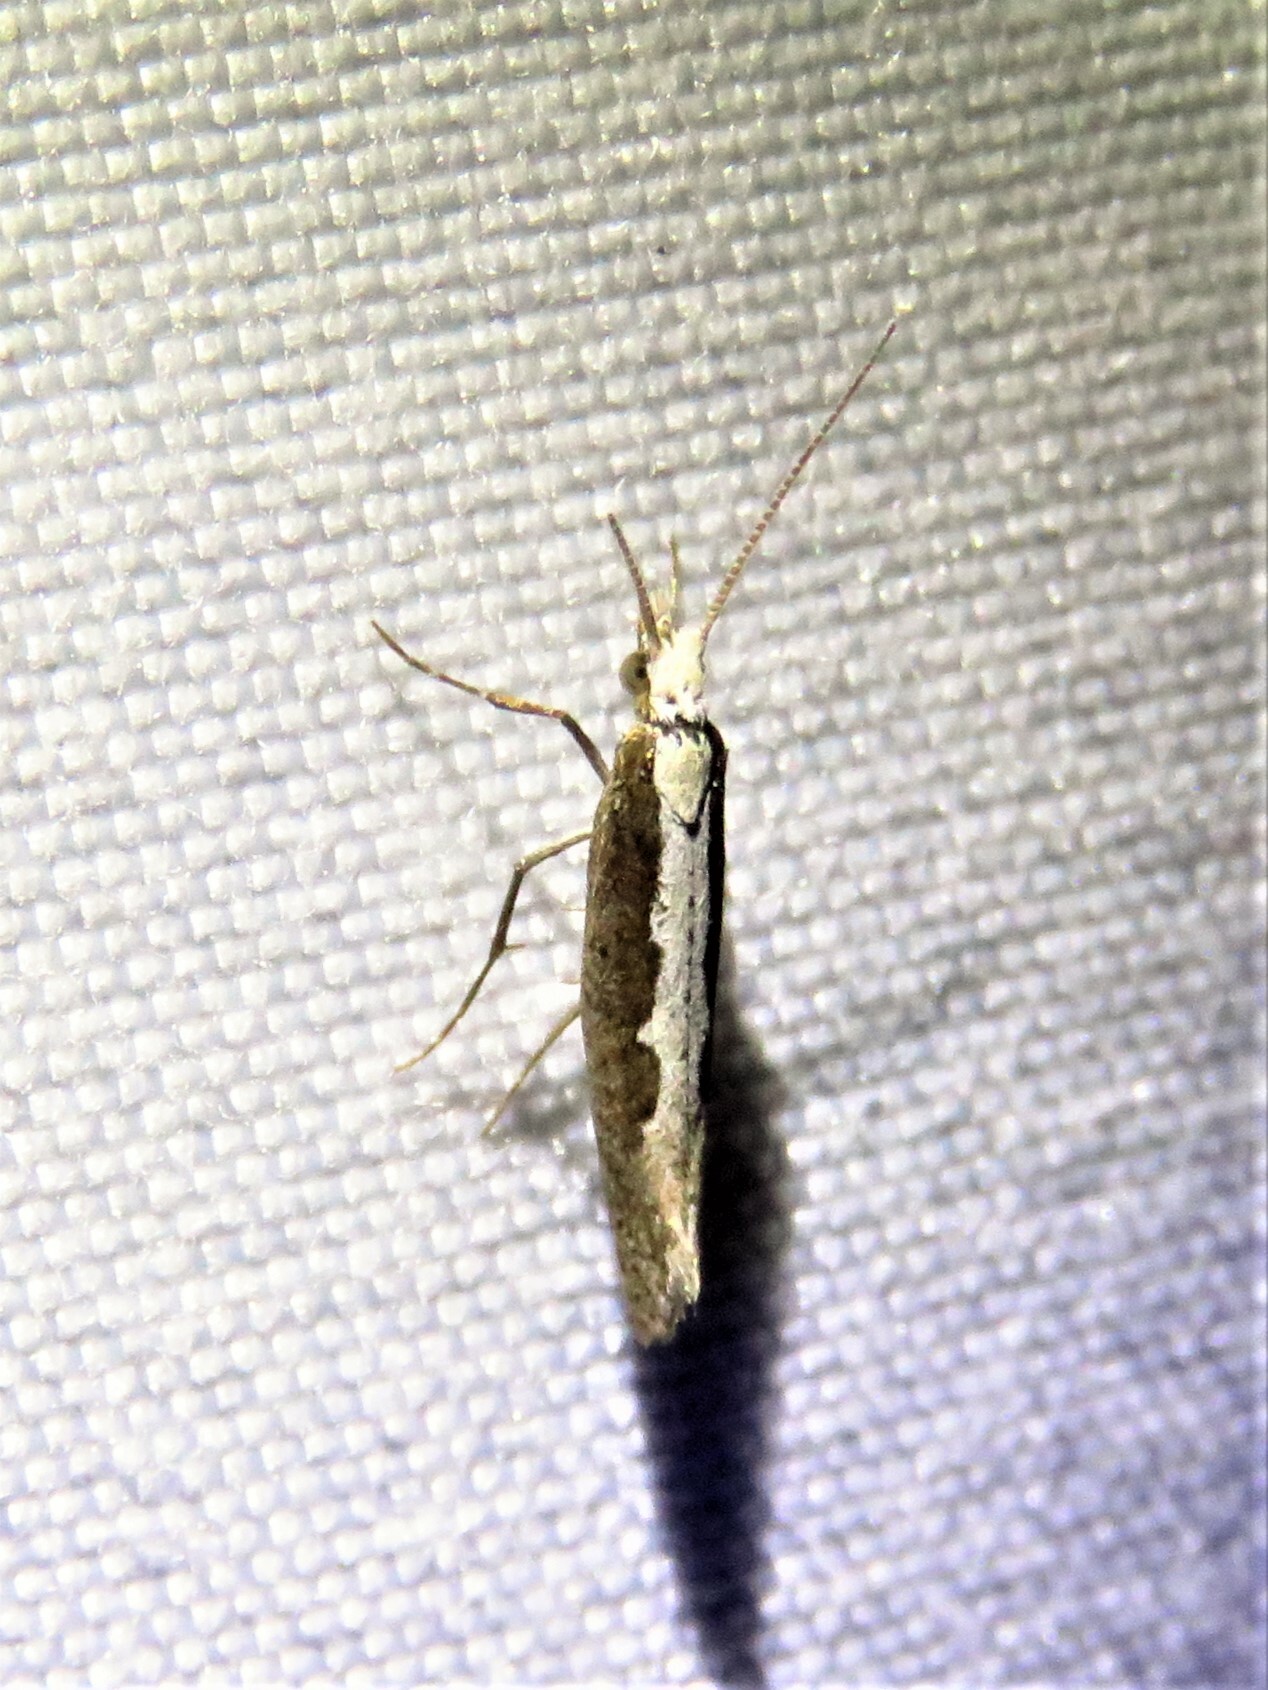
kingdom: Animalia
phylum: Arthropoda
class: Insecta
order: Lepidoptera
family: Plutellidae
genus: Plutella
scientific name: Plutella xylostella
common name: Diamond-back moth
